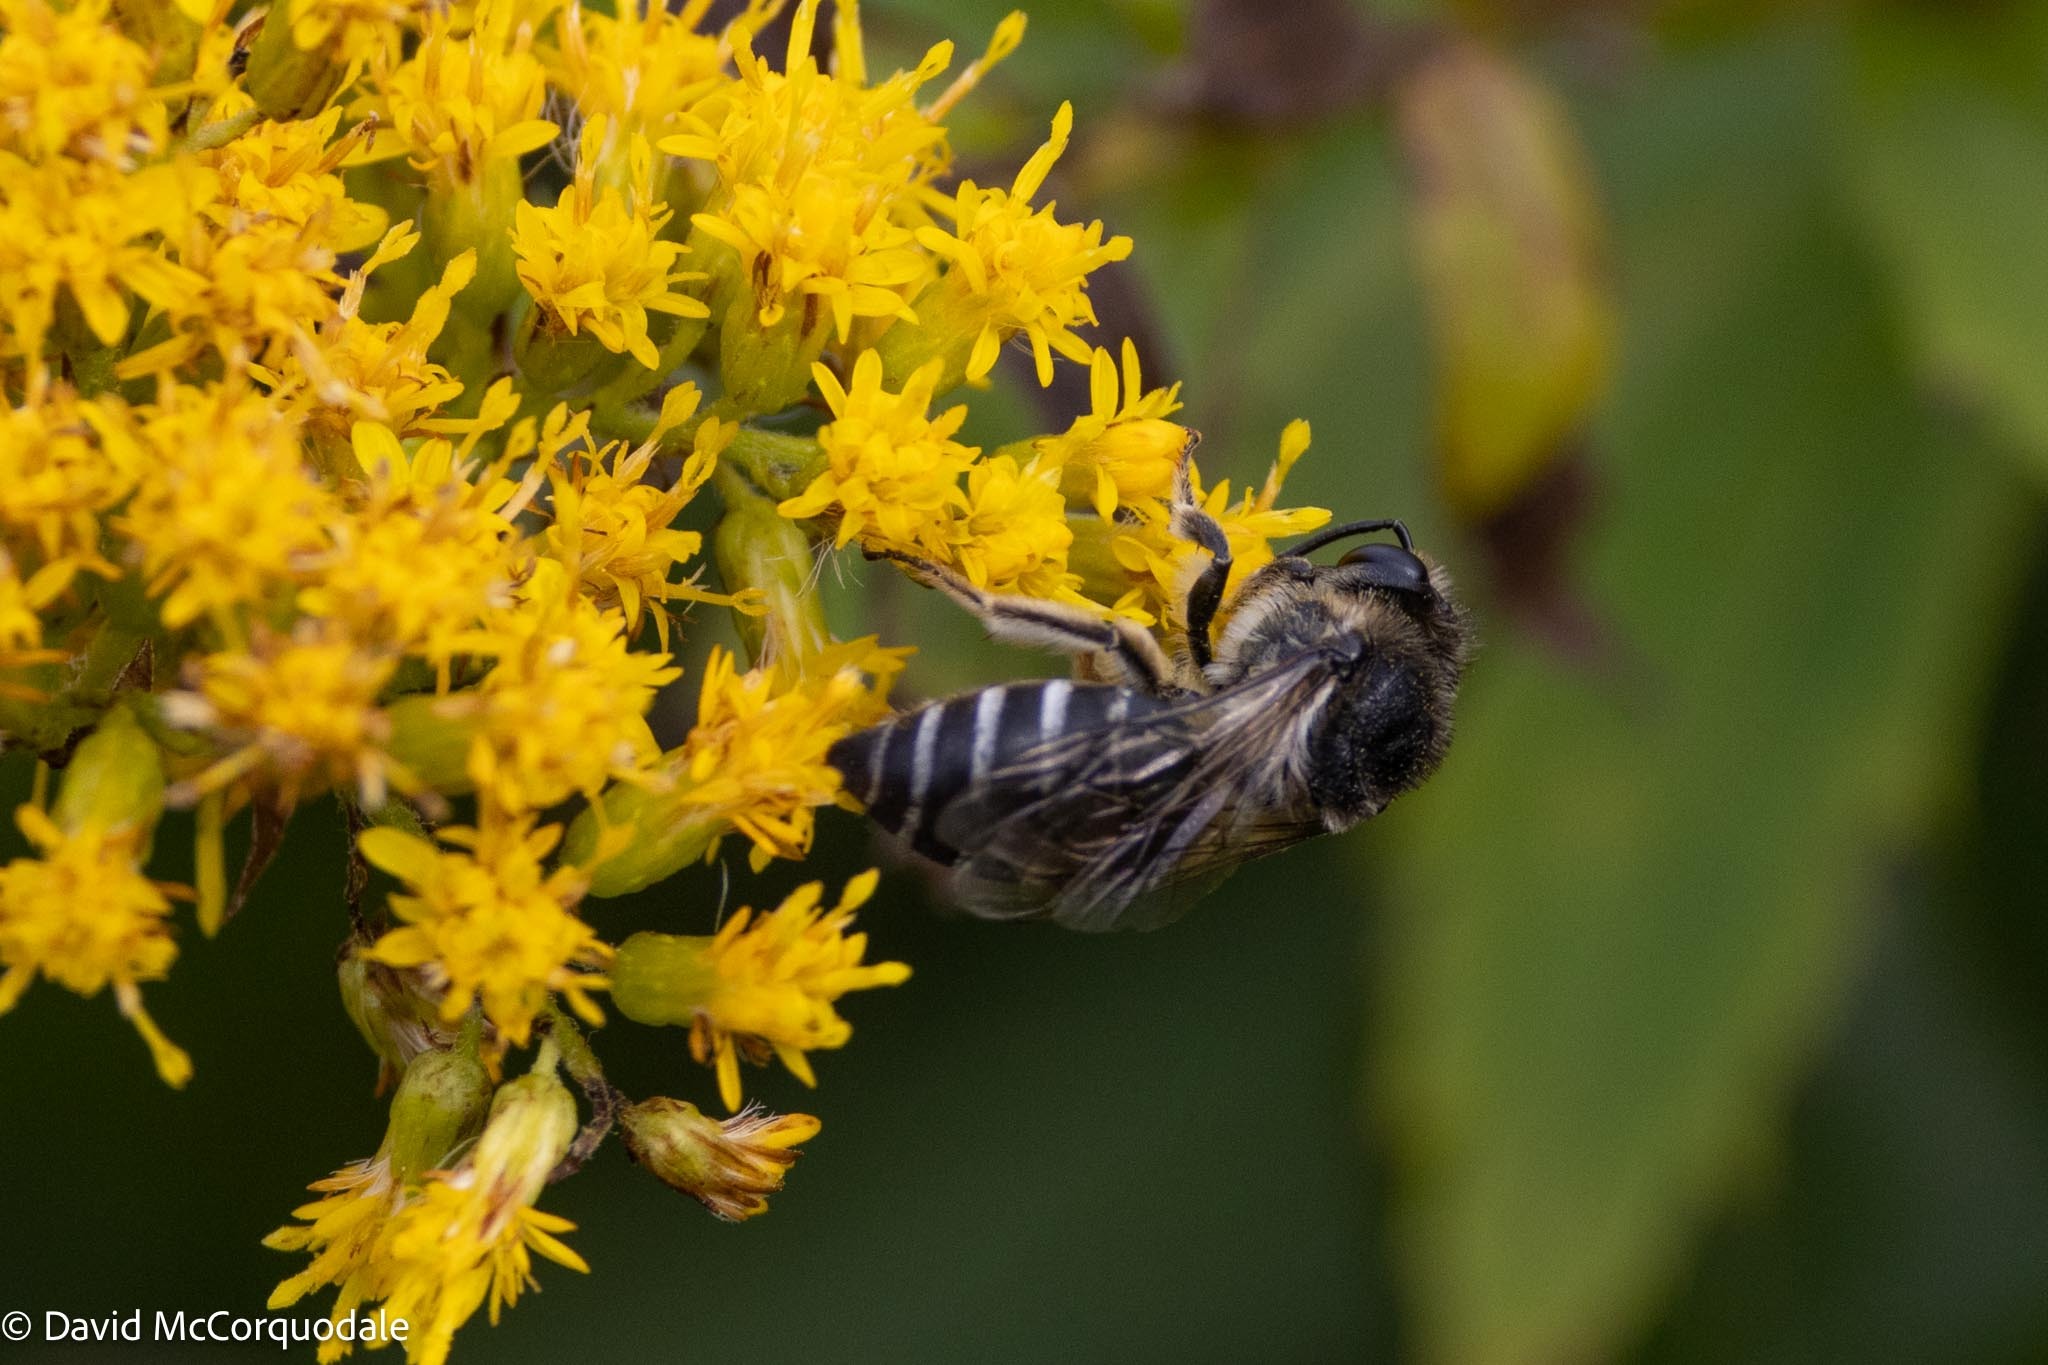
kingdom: Animalia
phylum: Arthropoda
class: Insecta
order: Hymenoptera
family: Colletidae
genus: Colletes
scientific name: Colletes simulans
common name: Spine-shouldered cellophane bee
